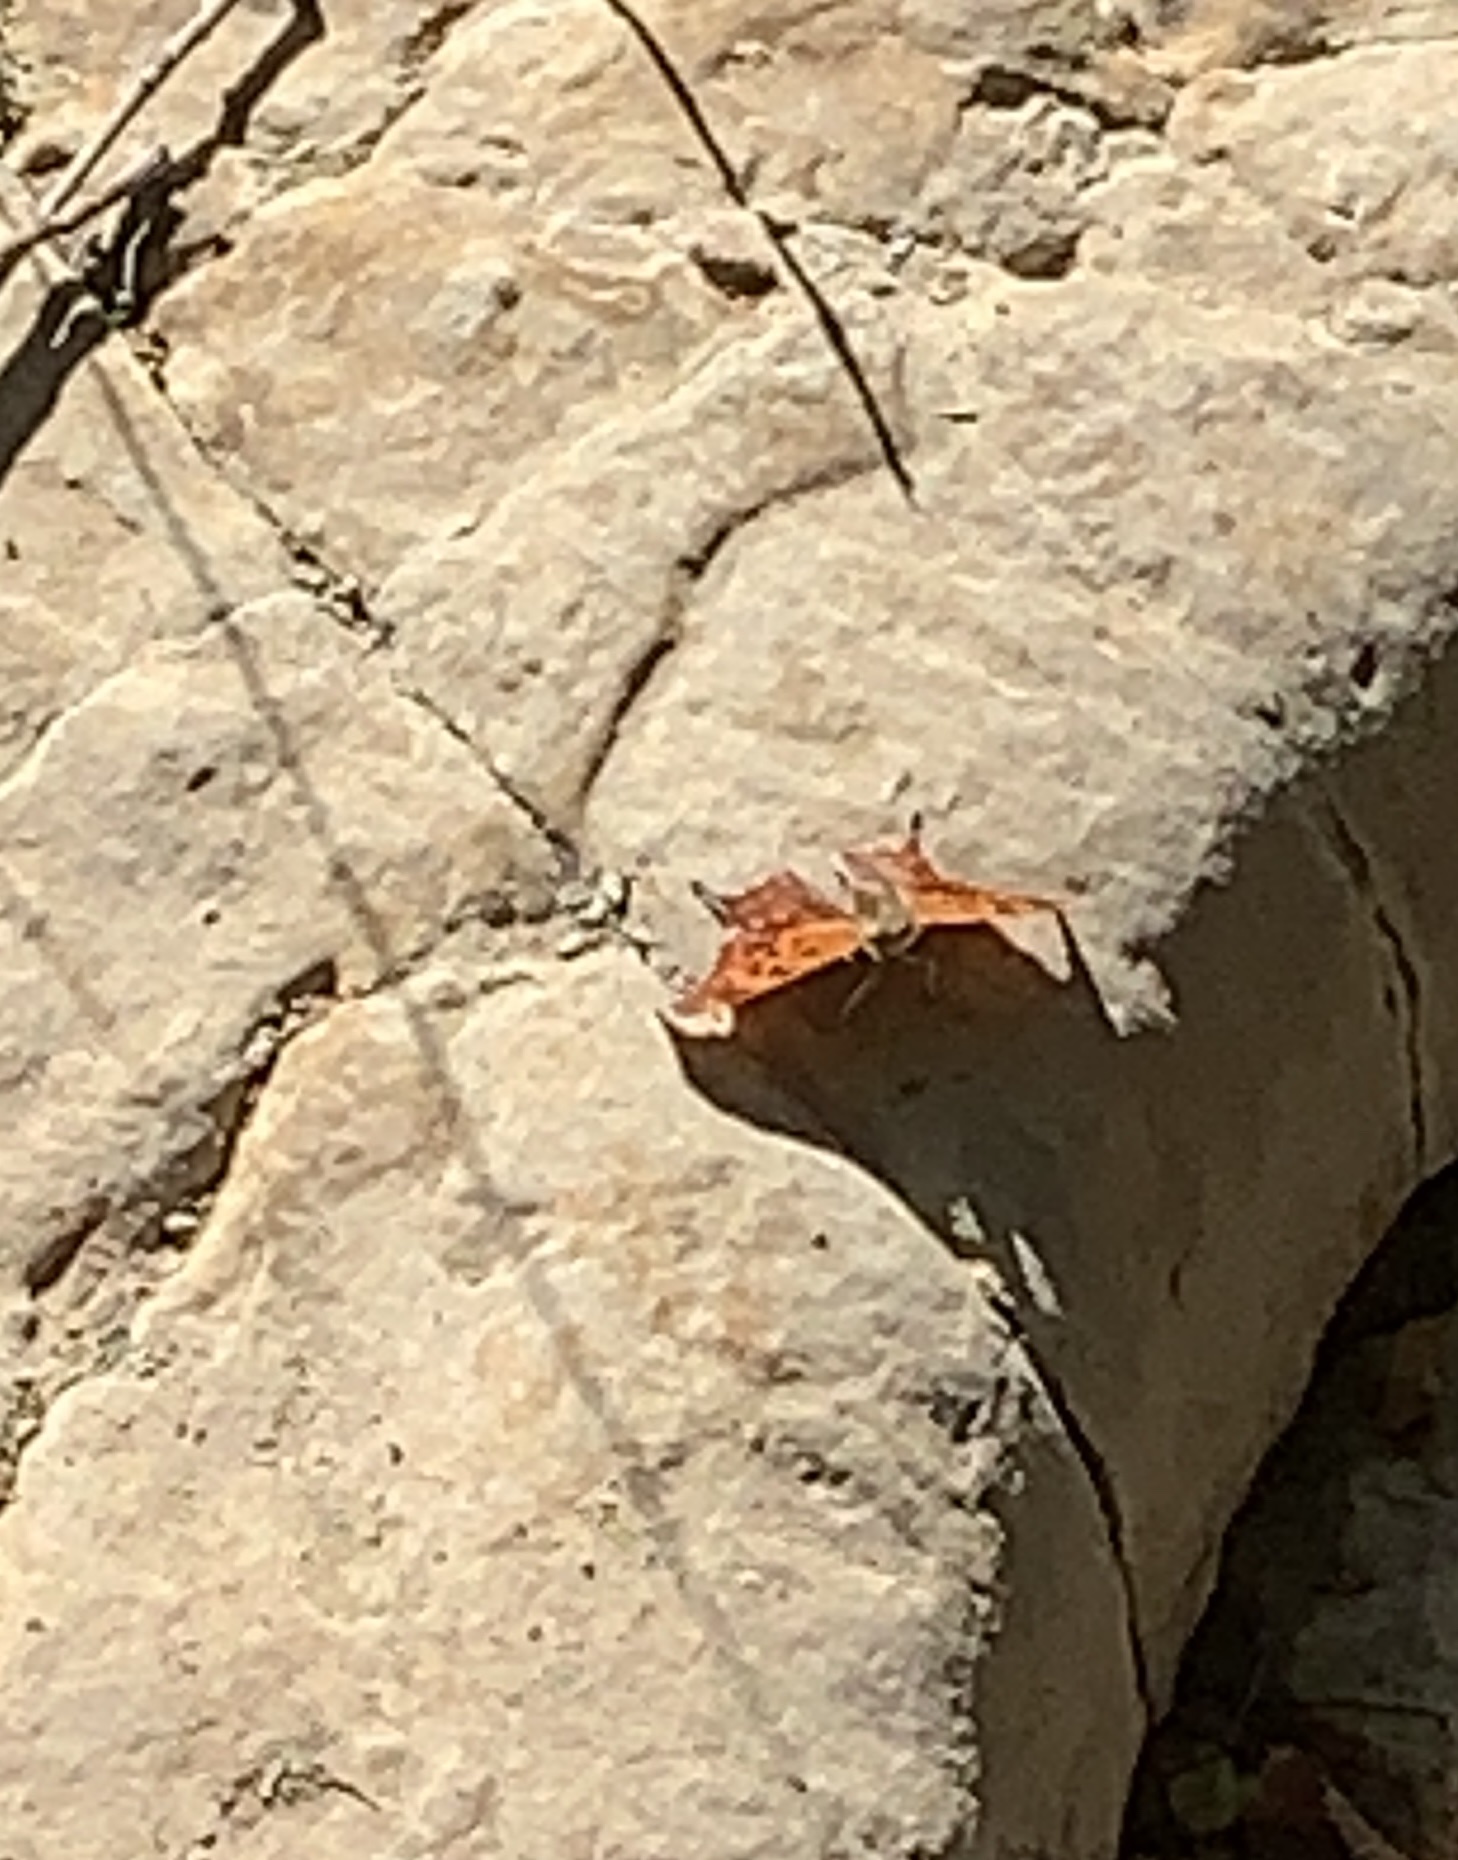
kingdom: Animalia
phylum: Arthropoda
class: Insecta
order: Lepidoptera
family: Nymphalidae
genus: Polygonia
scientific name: Polygonia interrogationis
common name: Question mark
